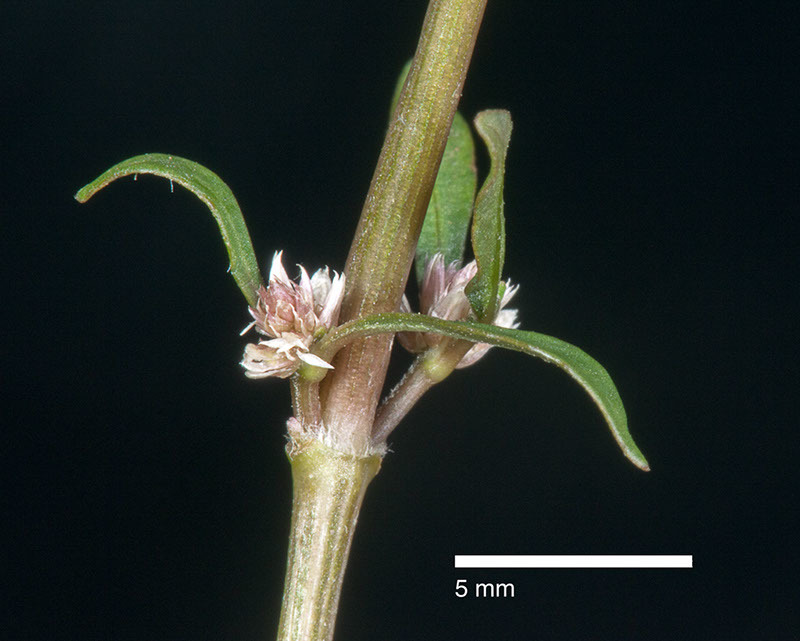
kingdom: Plantae
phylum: Tracheophyta
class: Magnoliopsida
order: Caryophyllales
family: Amaranthaceae
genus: Alternanthera
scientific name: Alternanthera nahui
